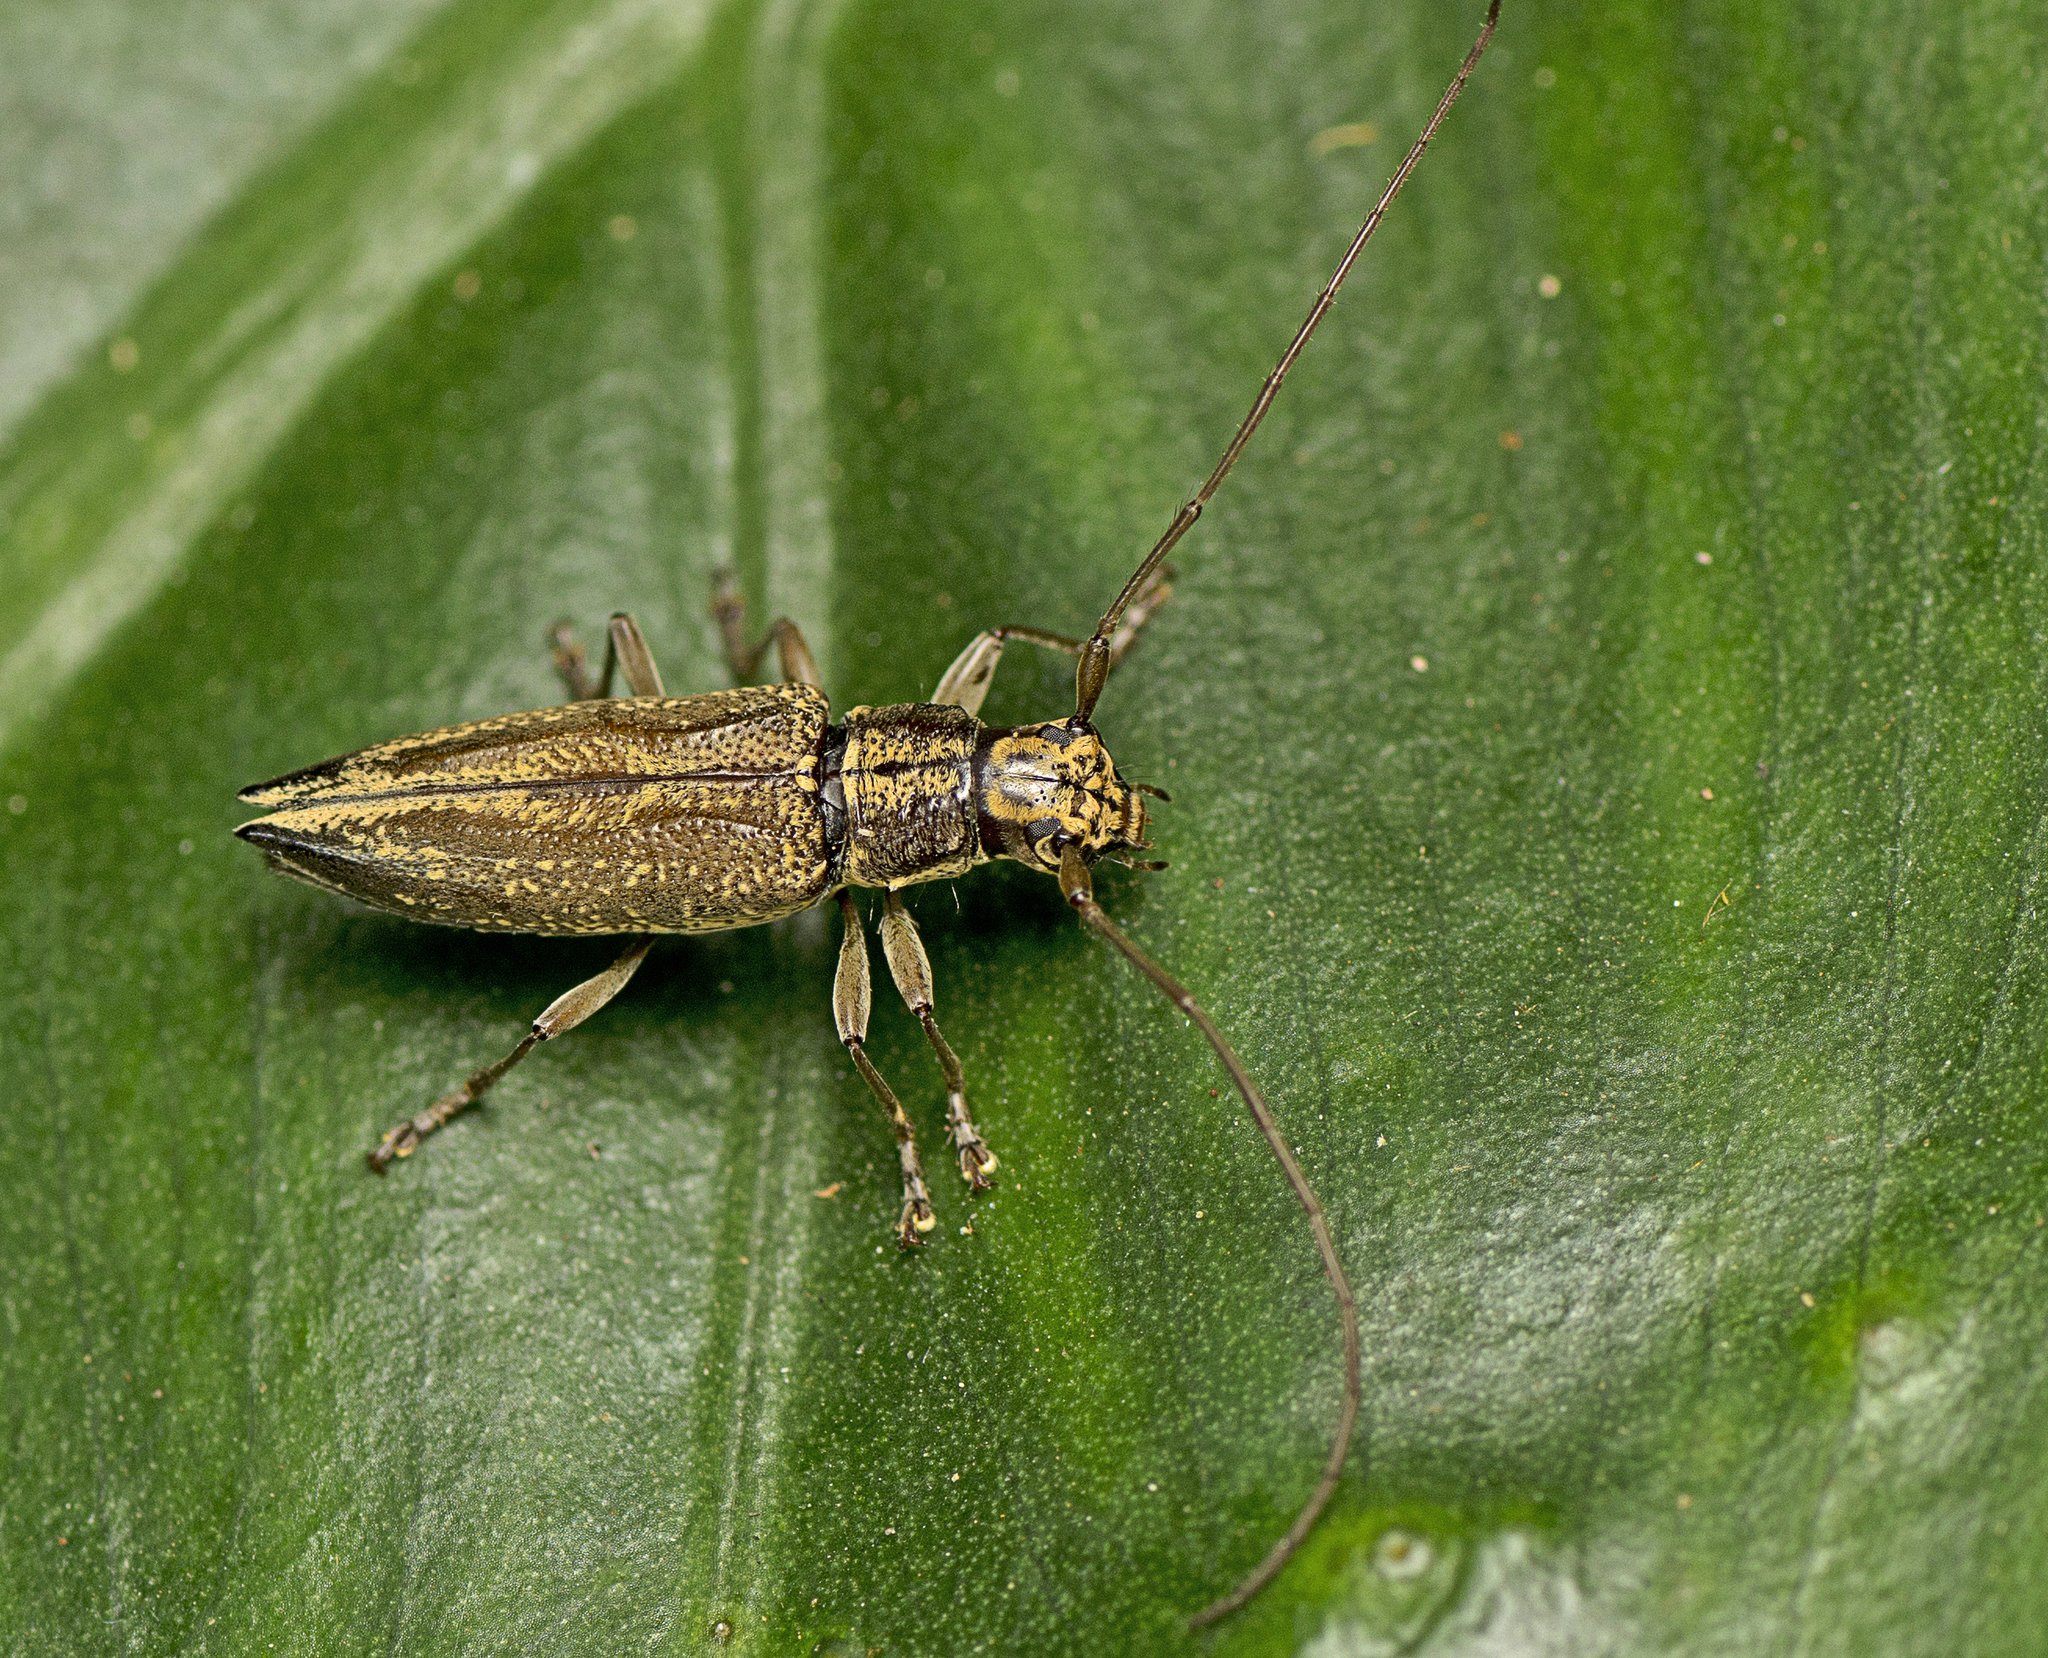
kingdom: Animalia
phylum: Arthropoda
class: Insecta
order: Coleoptera
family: Cerambycidae
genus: Temnosternus
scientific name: Temnosternus planiusculus
